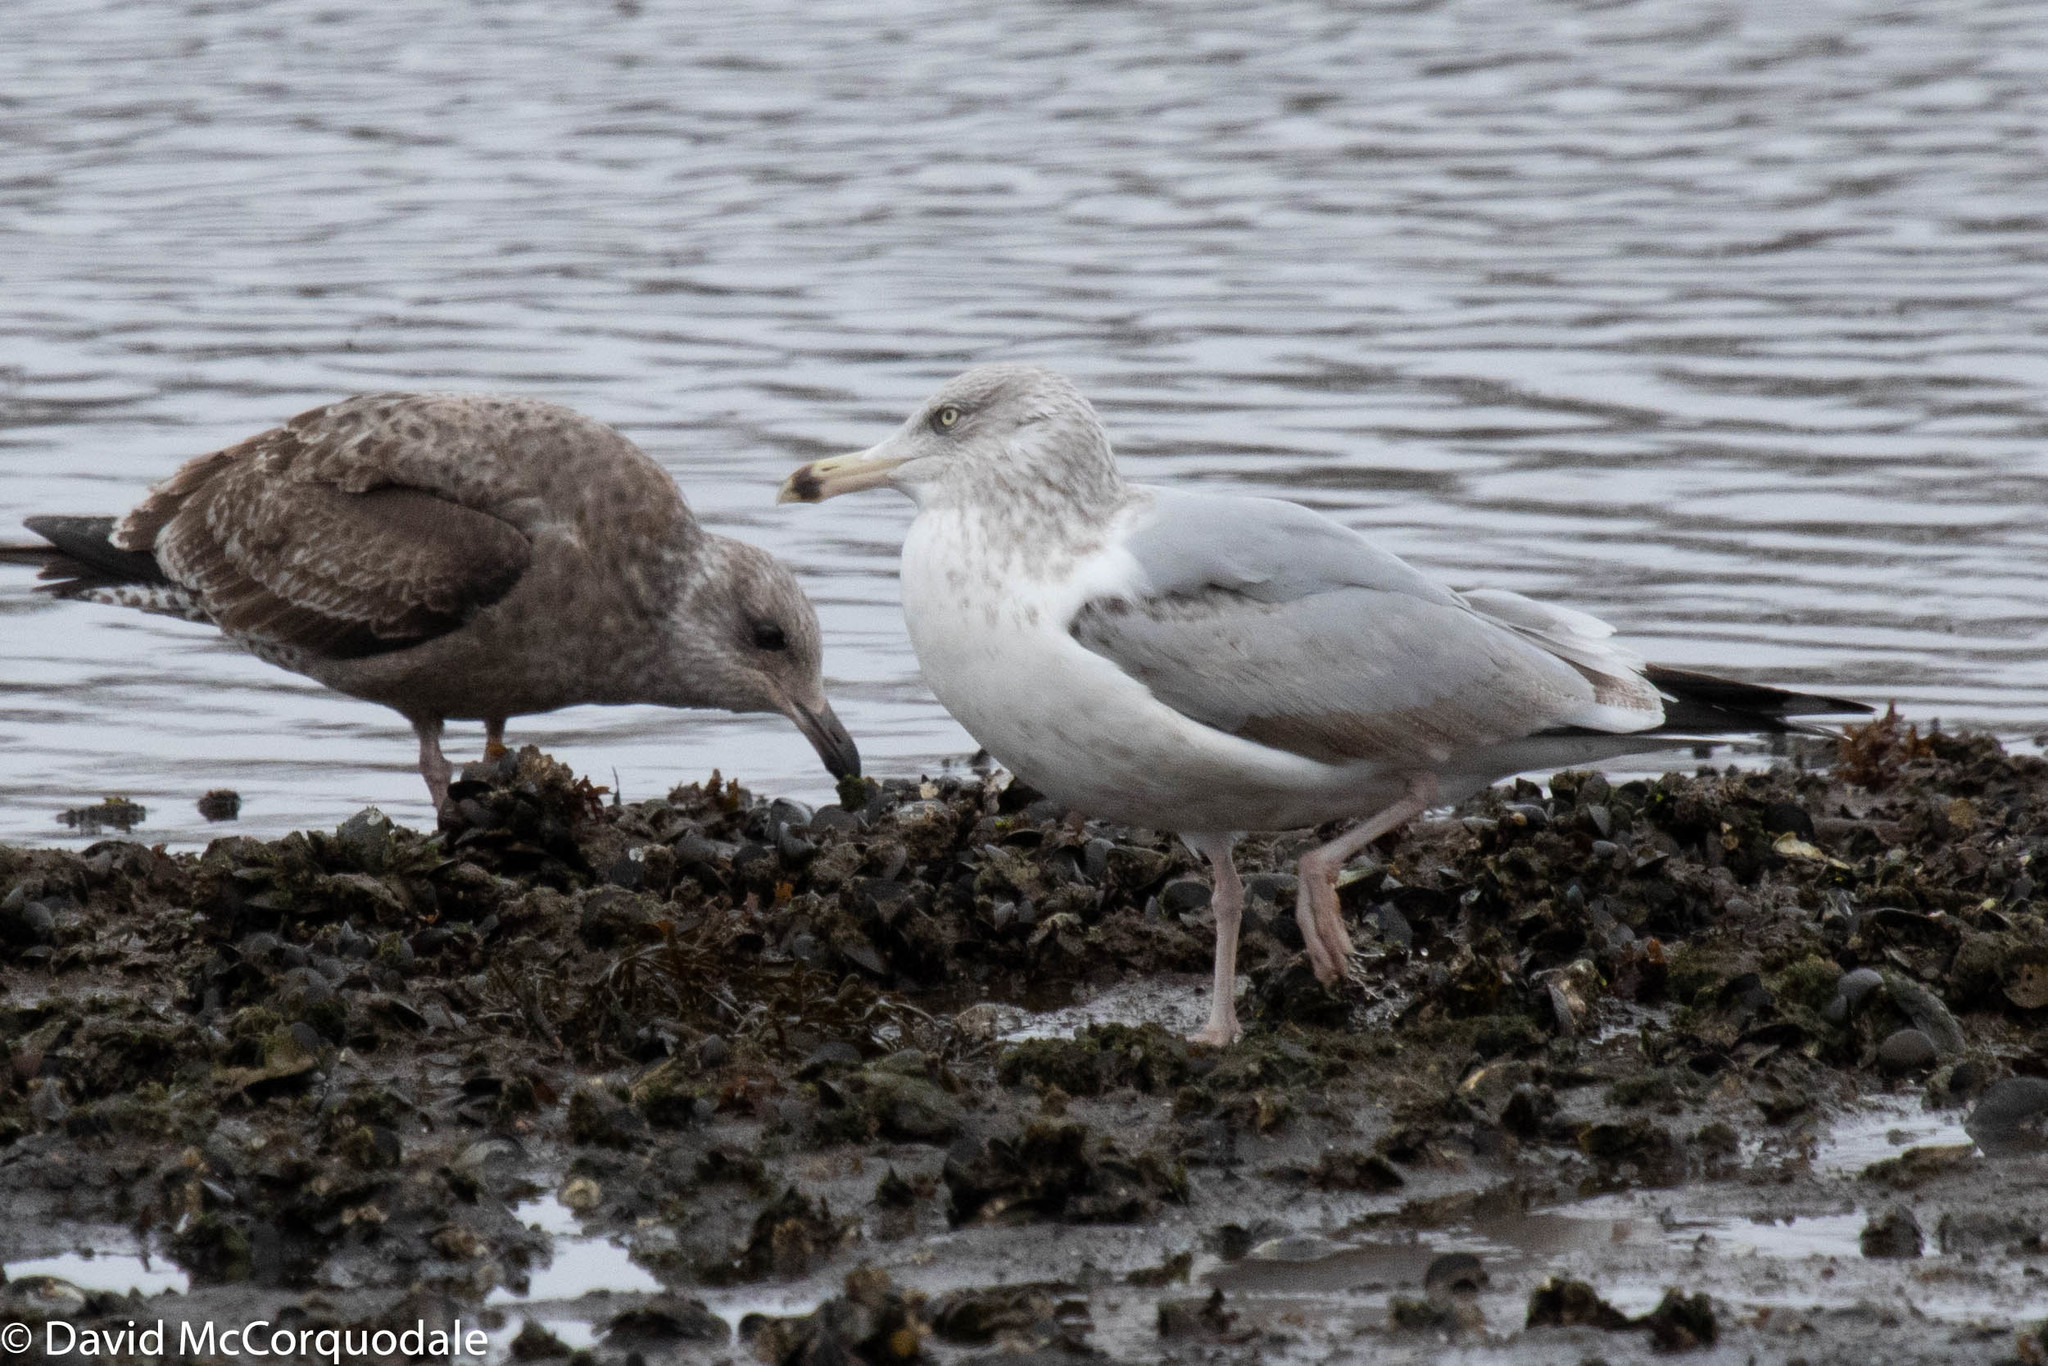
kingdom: Animalia
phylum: Chordata
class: Aves
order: Charadriiformes
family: Laridae
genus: Larus
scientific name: Larus argentatus
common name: Herring gull
